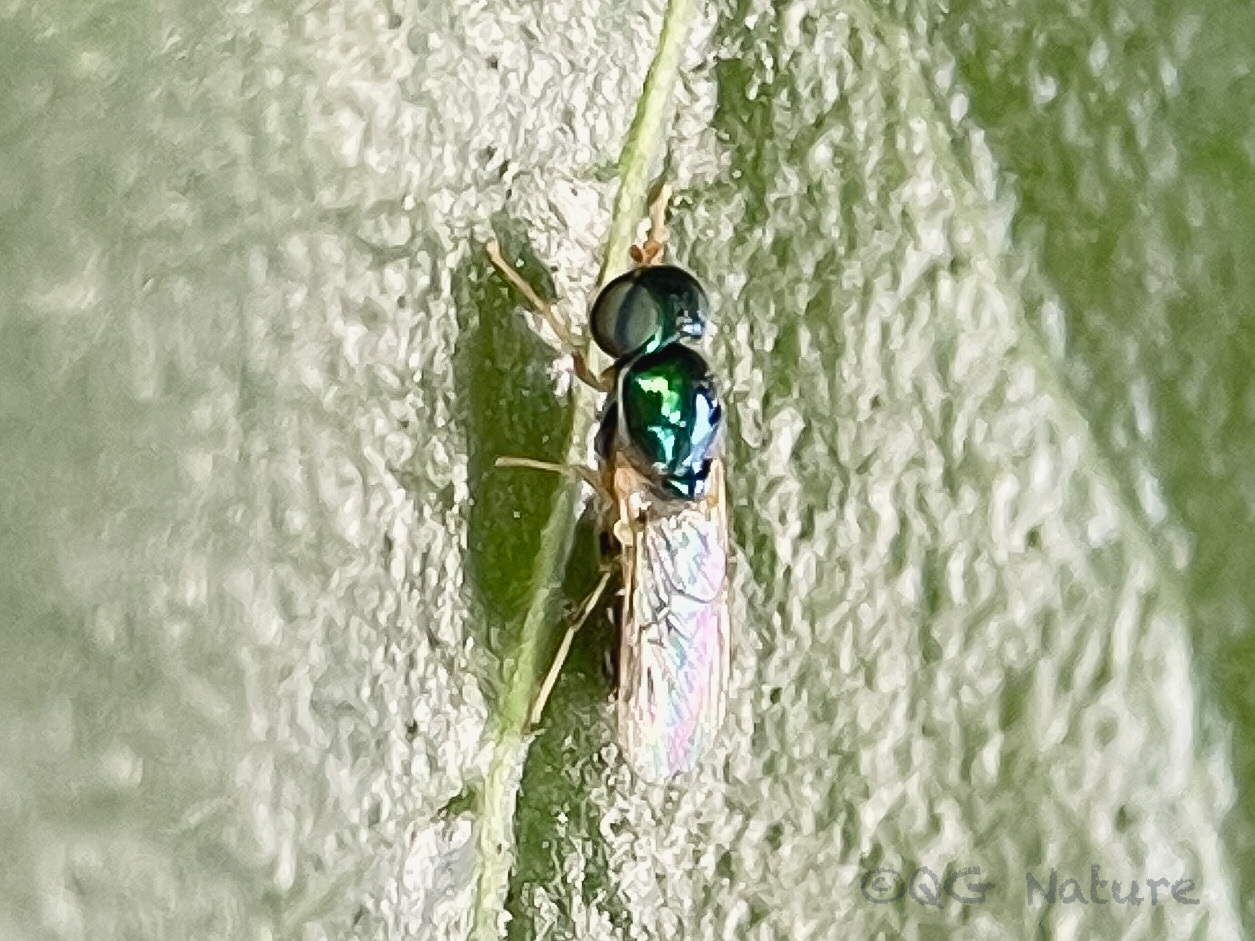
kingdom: Animalia
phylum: Arthropoda
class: Insecta
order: Diptera
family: Stratiomyidae
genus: Microchrysa
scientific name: Microchrysa flaviventris
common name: Soldier fly
